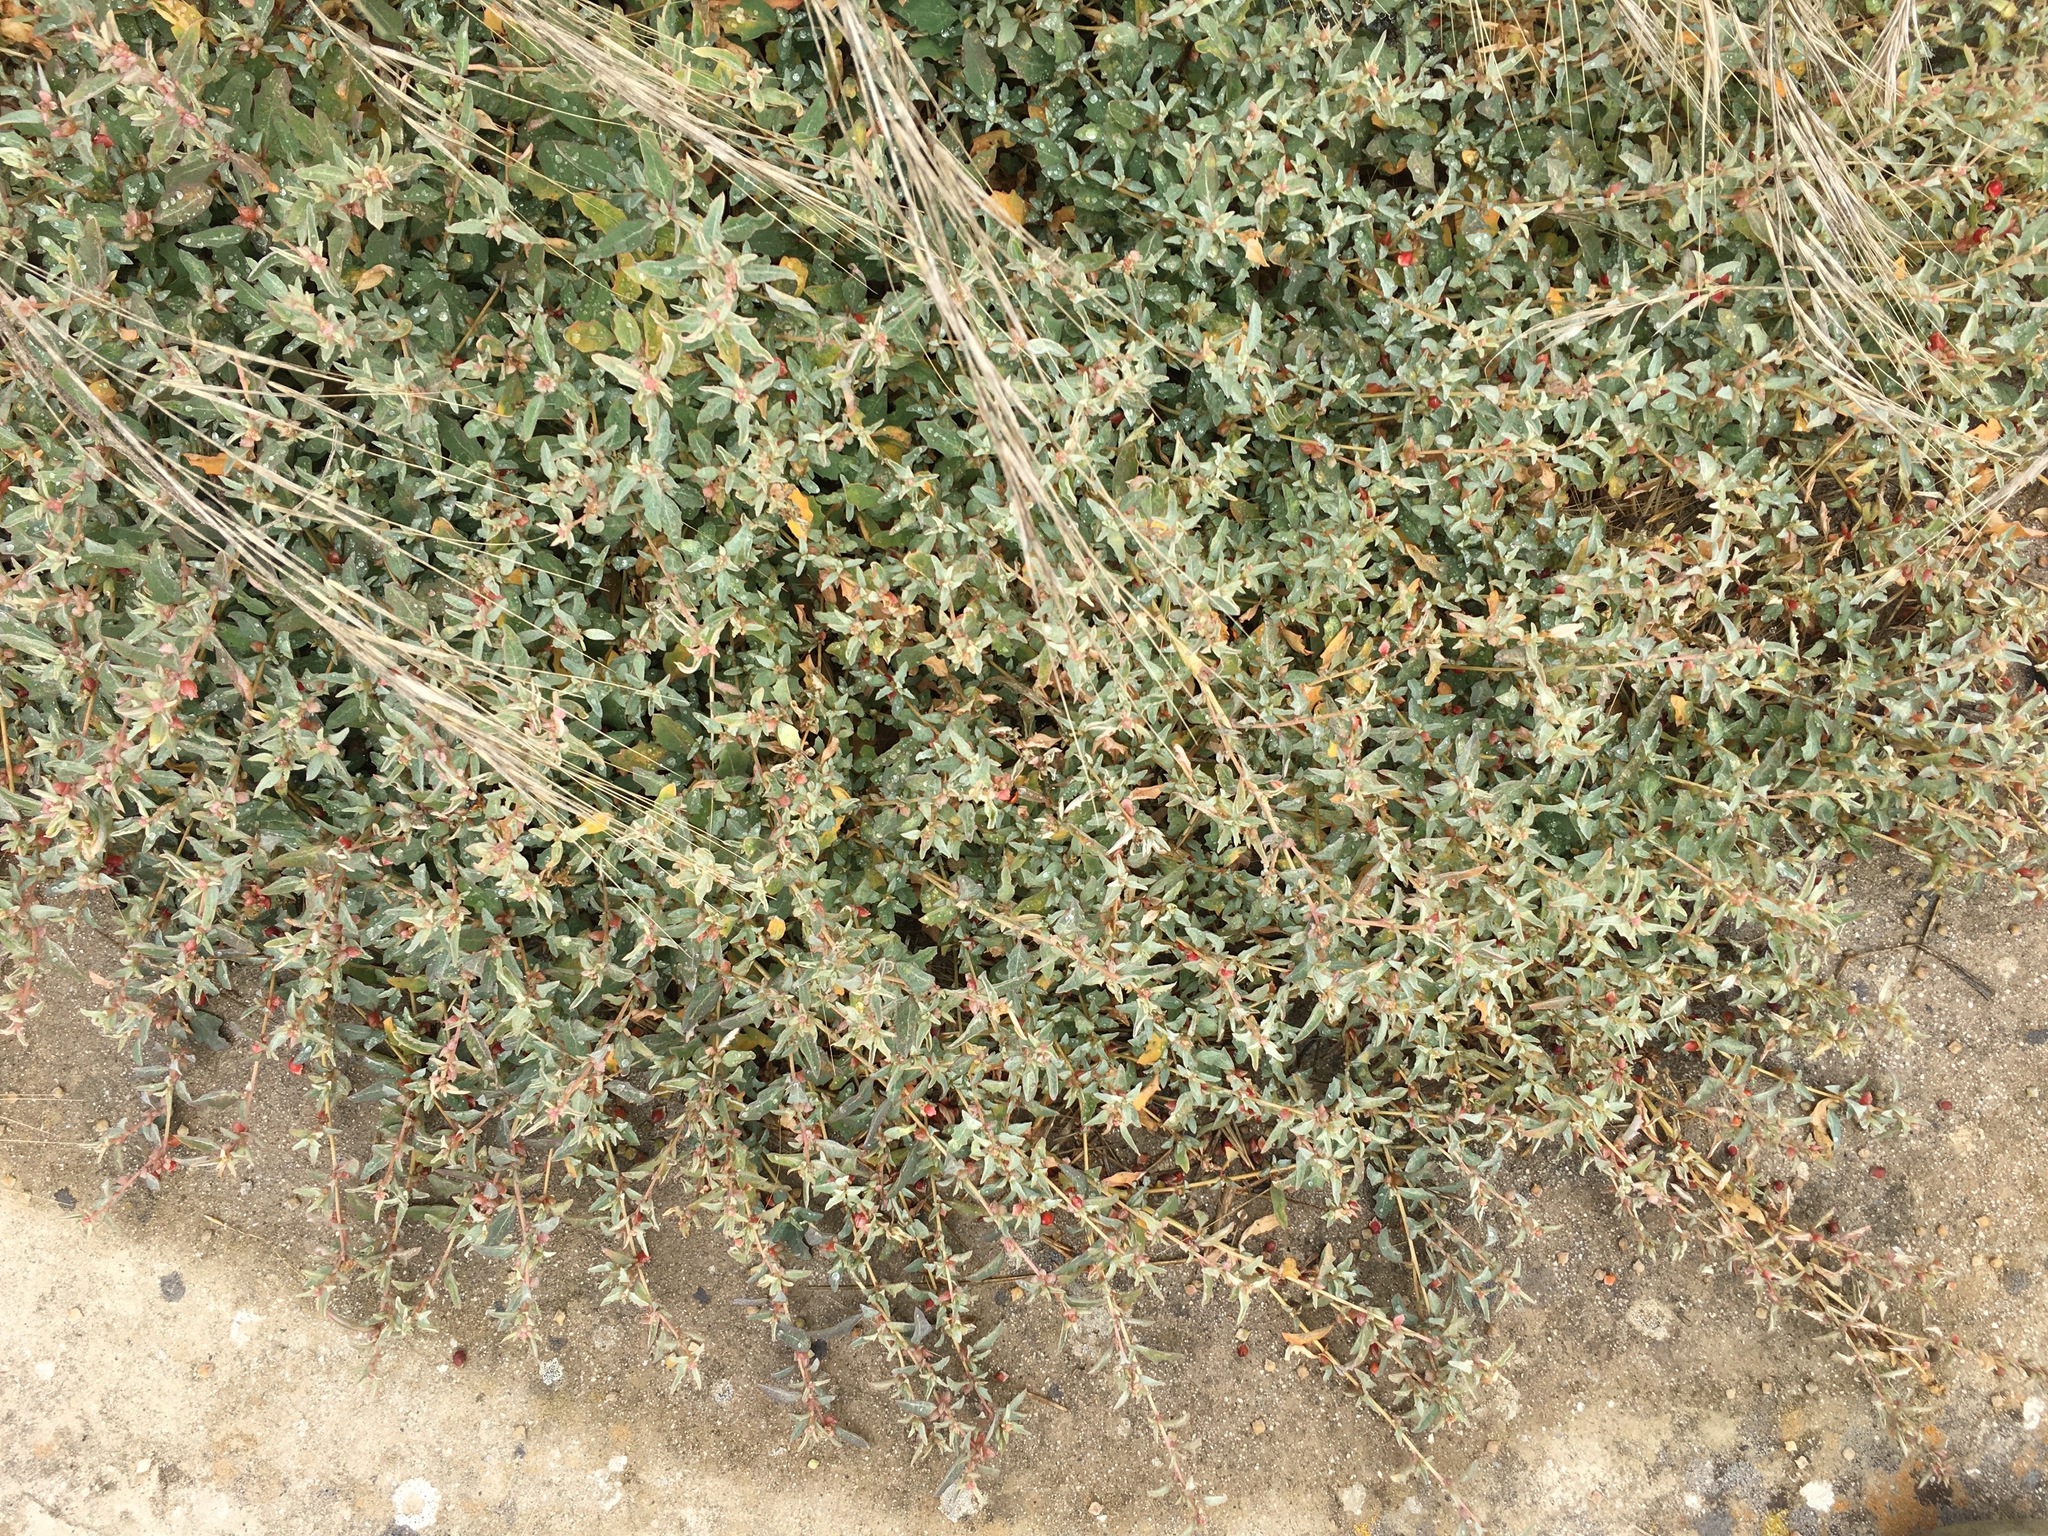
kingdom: Plantae
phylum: Tracheophyta
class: Magnoliopsida
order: Caryophyllales
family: Amaranthaceae
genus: Atriplex
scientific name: Atriplex semibaccata
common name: Australian saltbush
